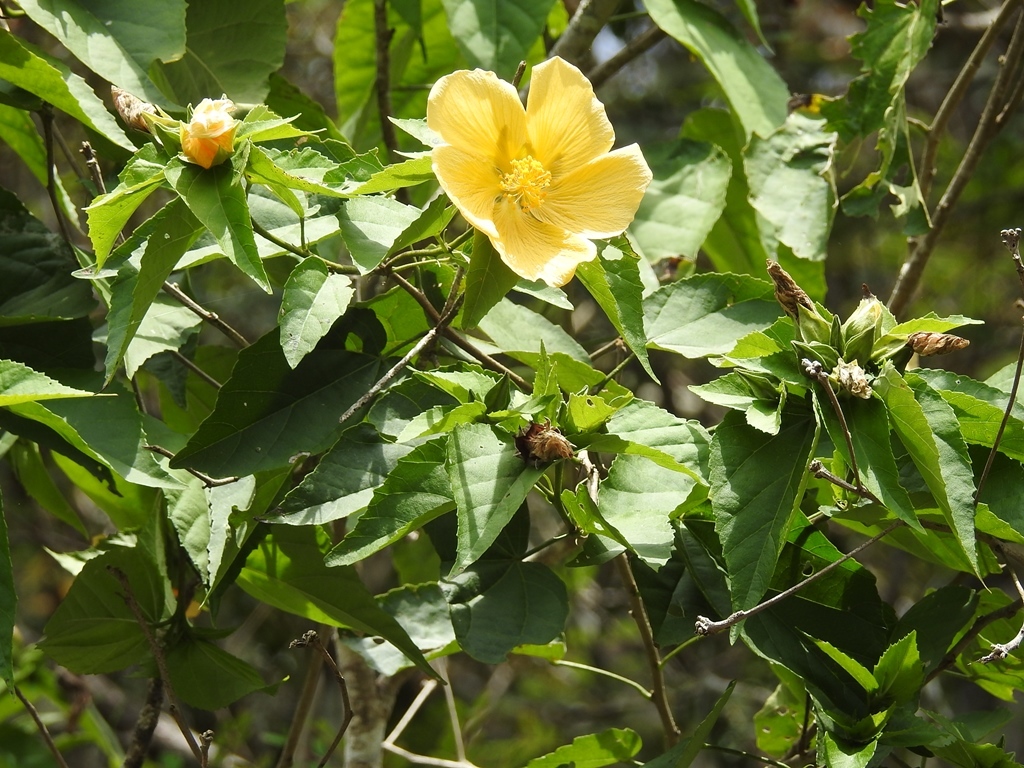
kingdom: Plantae
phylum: Tracheophyta
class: Magnoliopsida
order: Malvales
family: Malvaceae
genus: Dendrosida
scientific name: Dendrosida sharpiana
